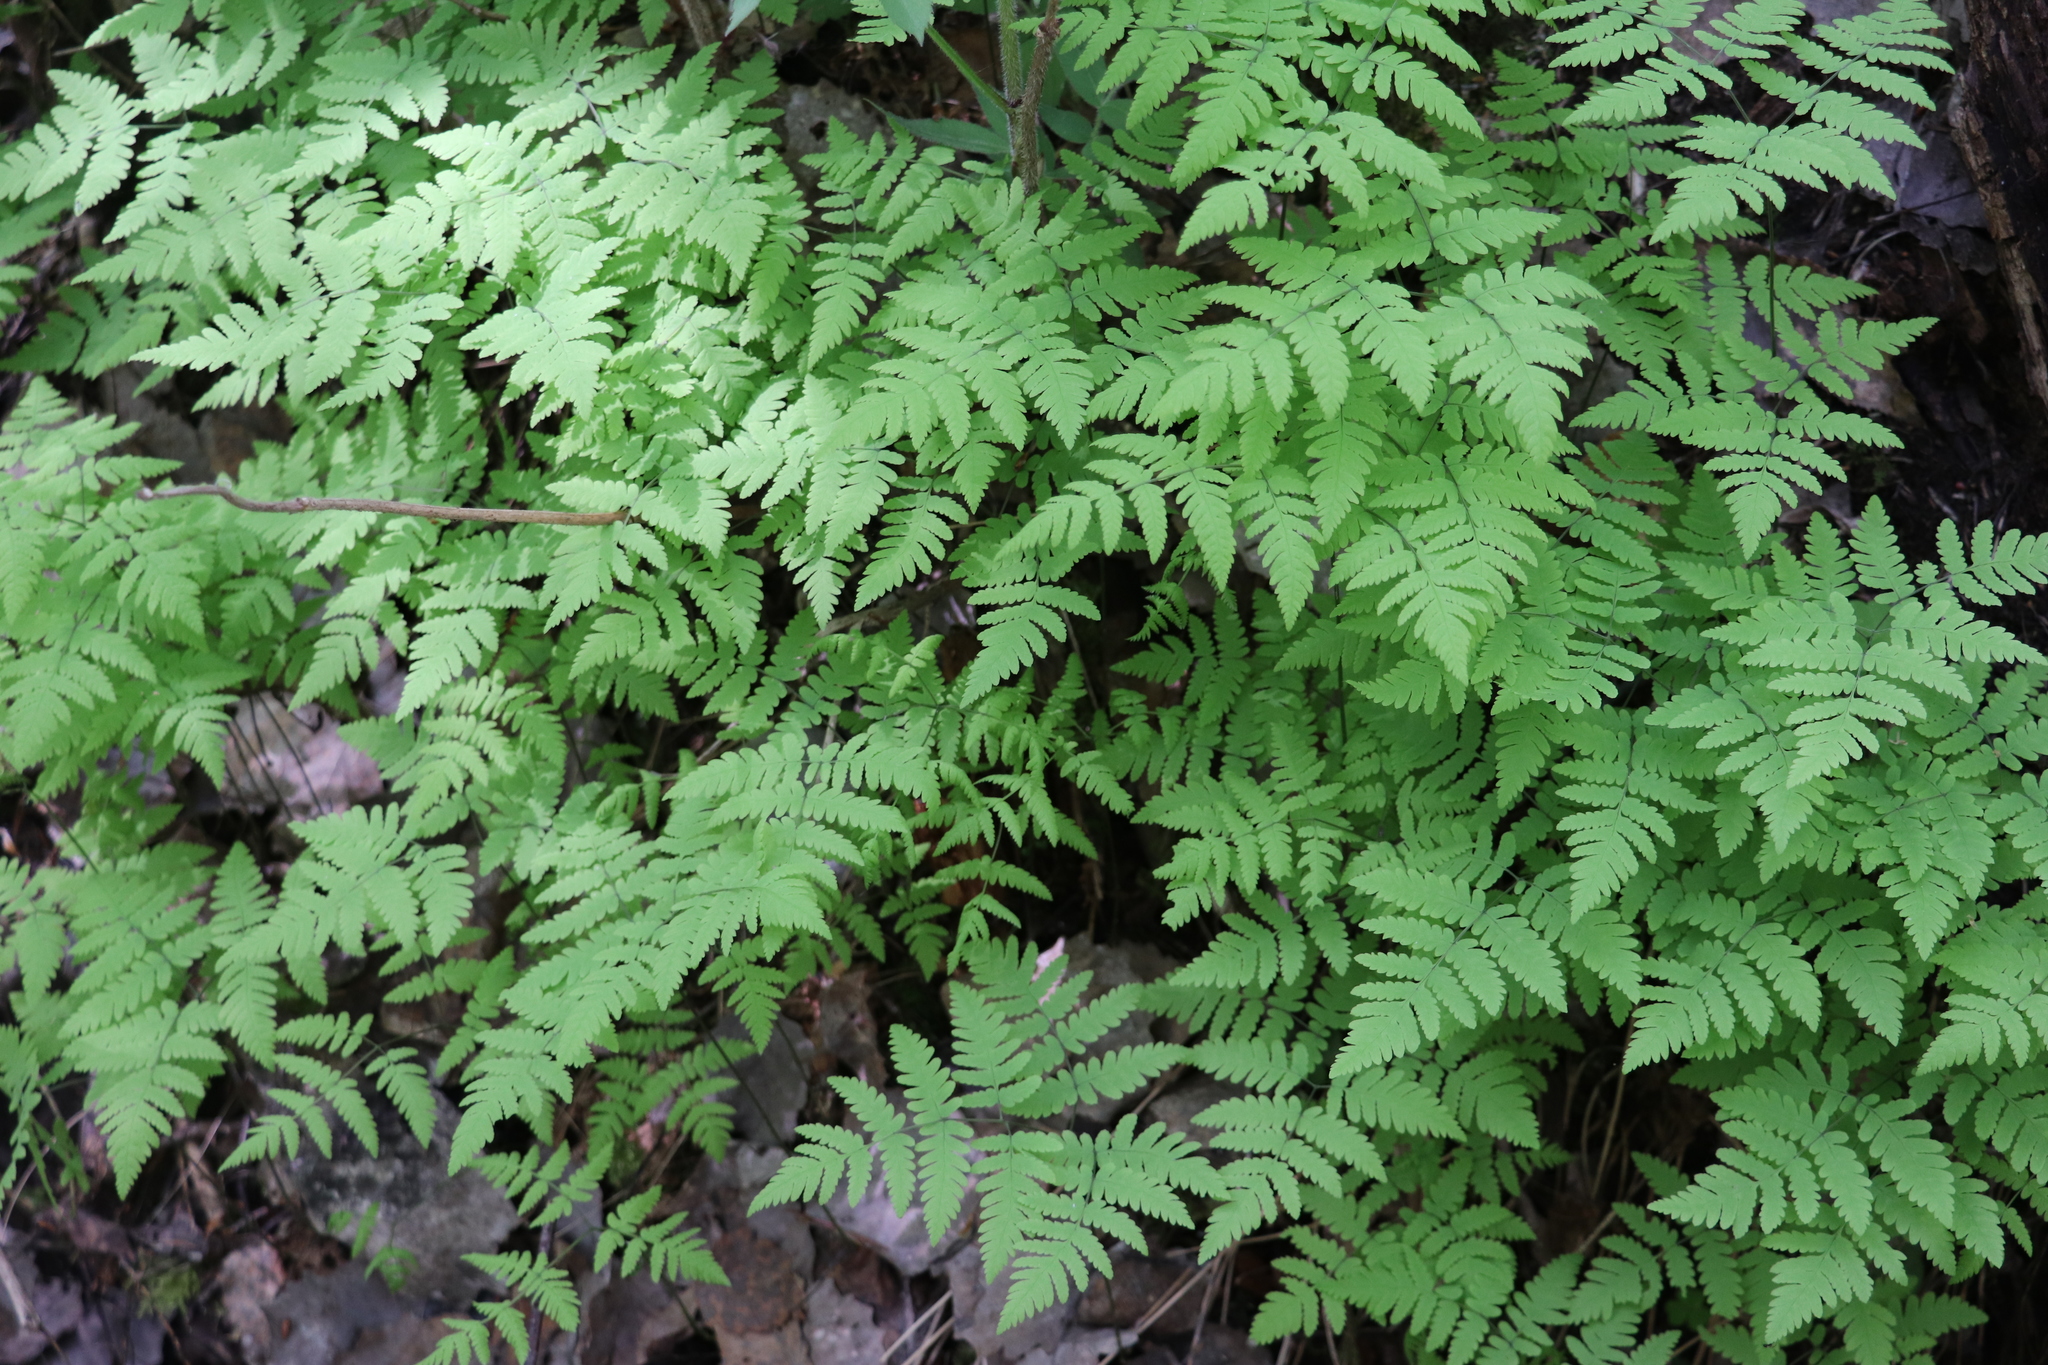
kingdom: Plantae
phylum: Tracheophyta
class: Polypodiopsida
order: Polypodiales
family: Cystopteridaceae
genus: Gymnocarpium
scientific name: Gymnocarpium dryopteris
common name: Oak fern
